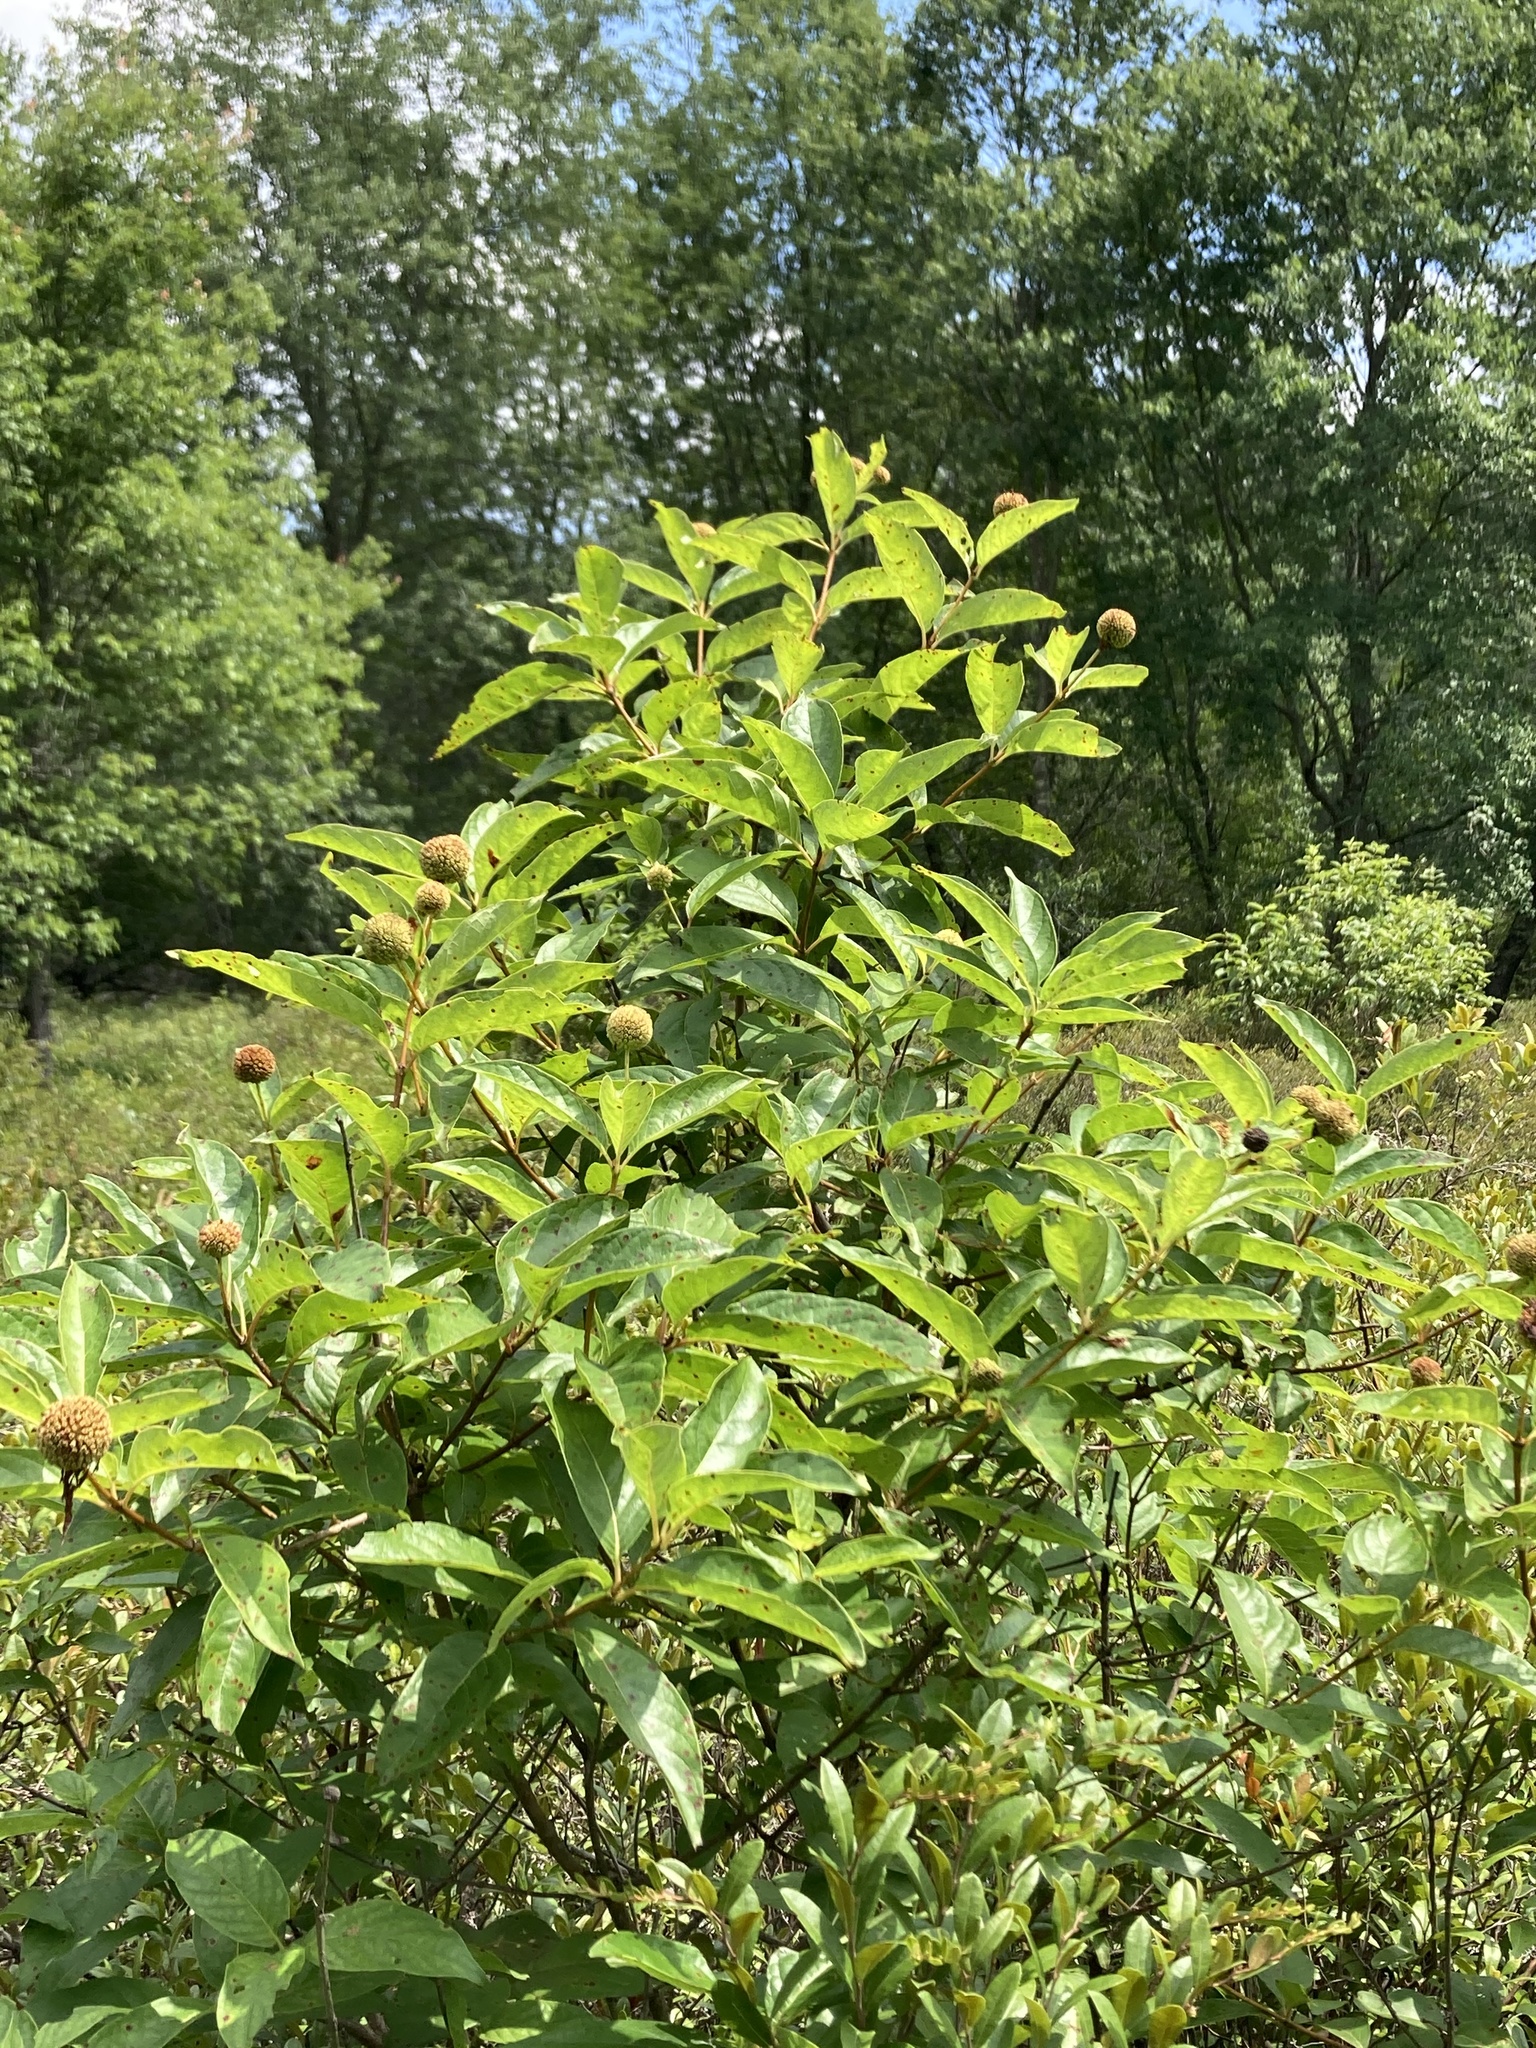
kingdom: Plantae
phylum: Tracheophyta
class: Magnoliopsida
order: Gentianales
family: Rubiaceae
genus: Cephalanthus
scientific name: Cephalanthus occidentalis
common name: Button-willow
